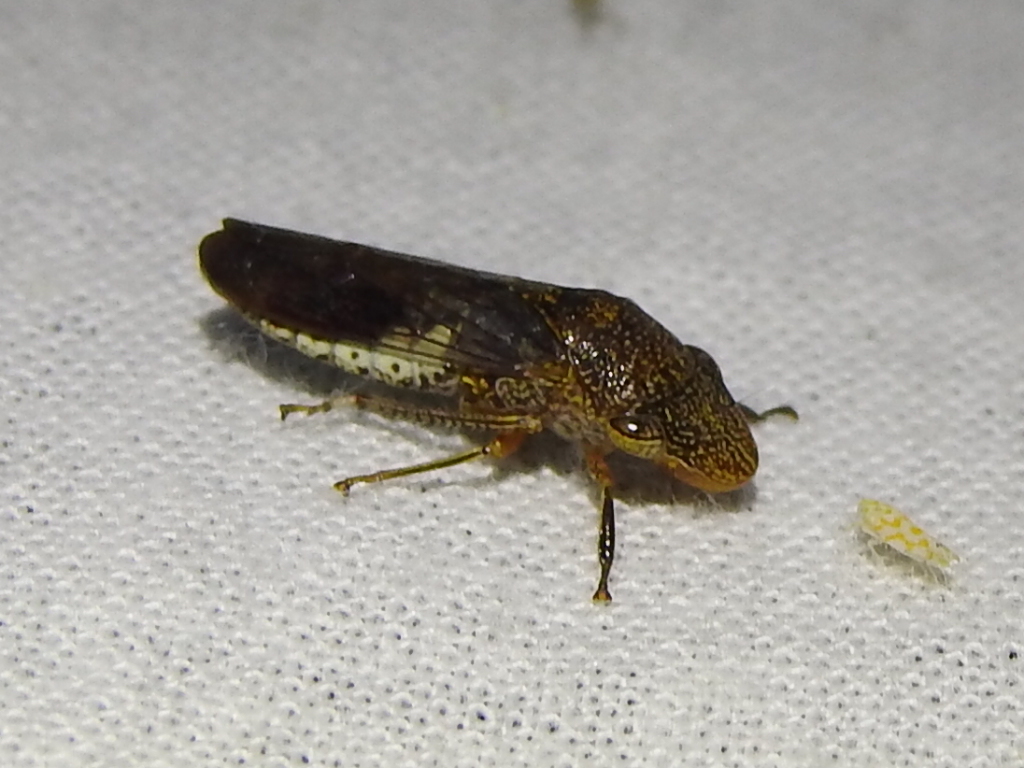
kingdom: Animalia
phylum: Arthropoda
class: Insecta
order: Hemiptera
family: Cicadellidae
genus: Homalodisca
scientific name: Homalodisca vitripennis
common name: Glassy-winged sharpshooter
